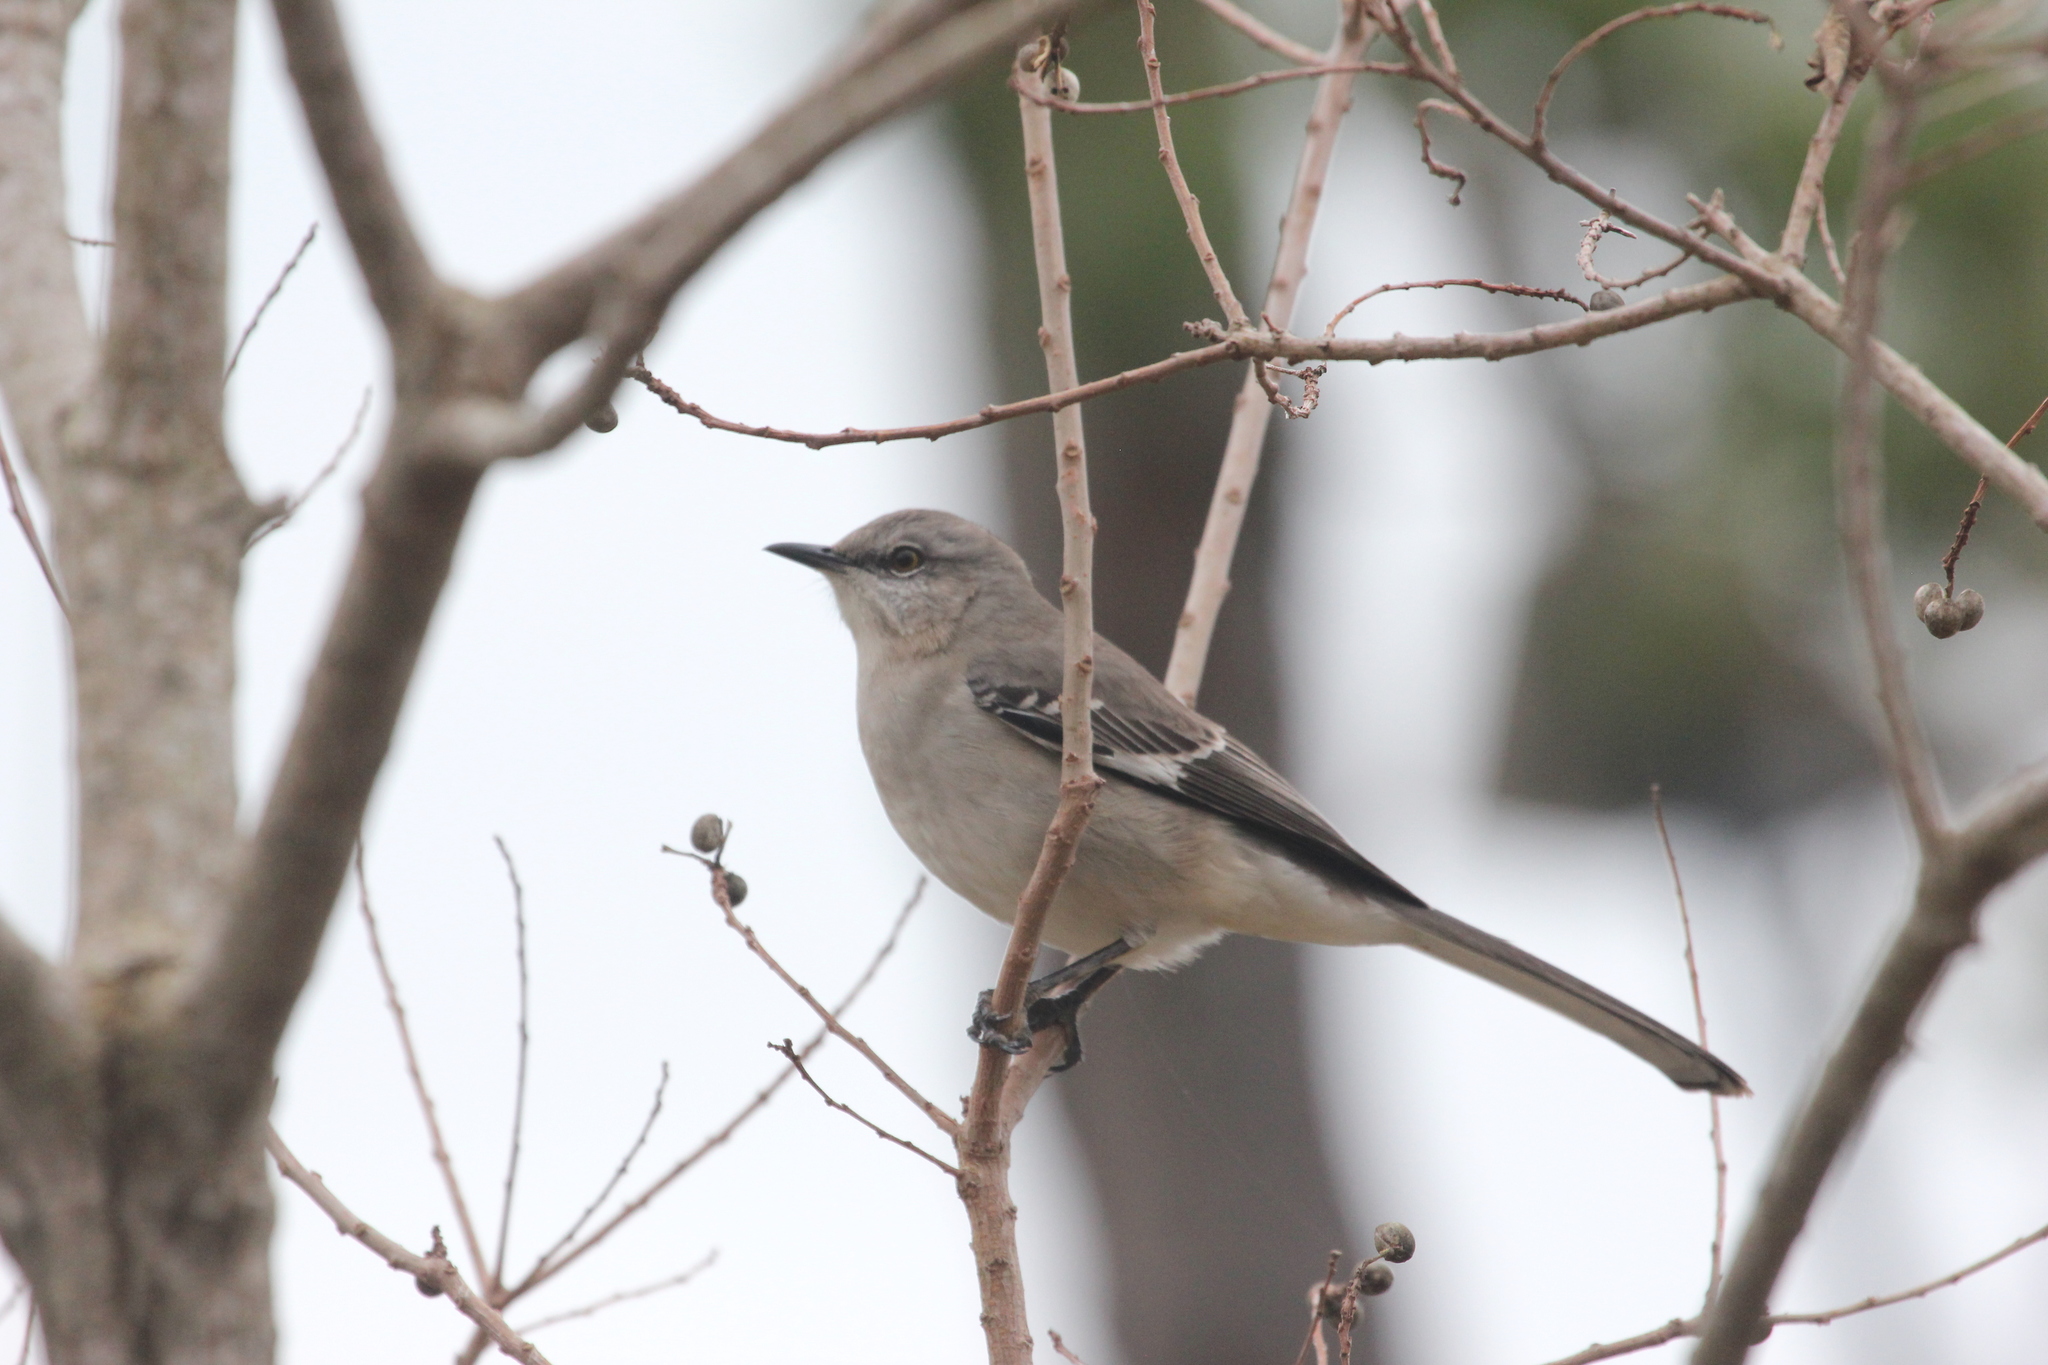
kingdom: Animalia
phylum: Chordata
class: Aves
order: Passeriformes
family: Mimidae
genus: Mimus
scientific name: Mimus polyglottos
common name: Northern mockingbird
